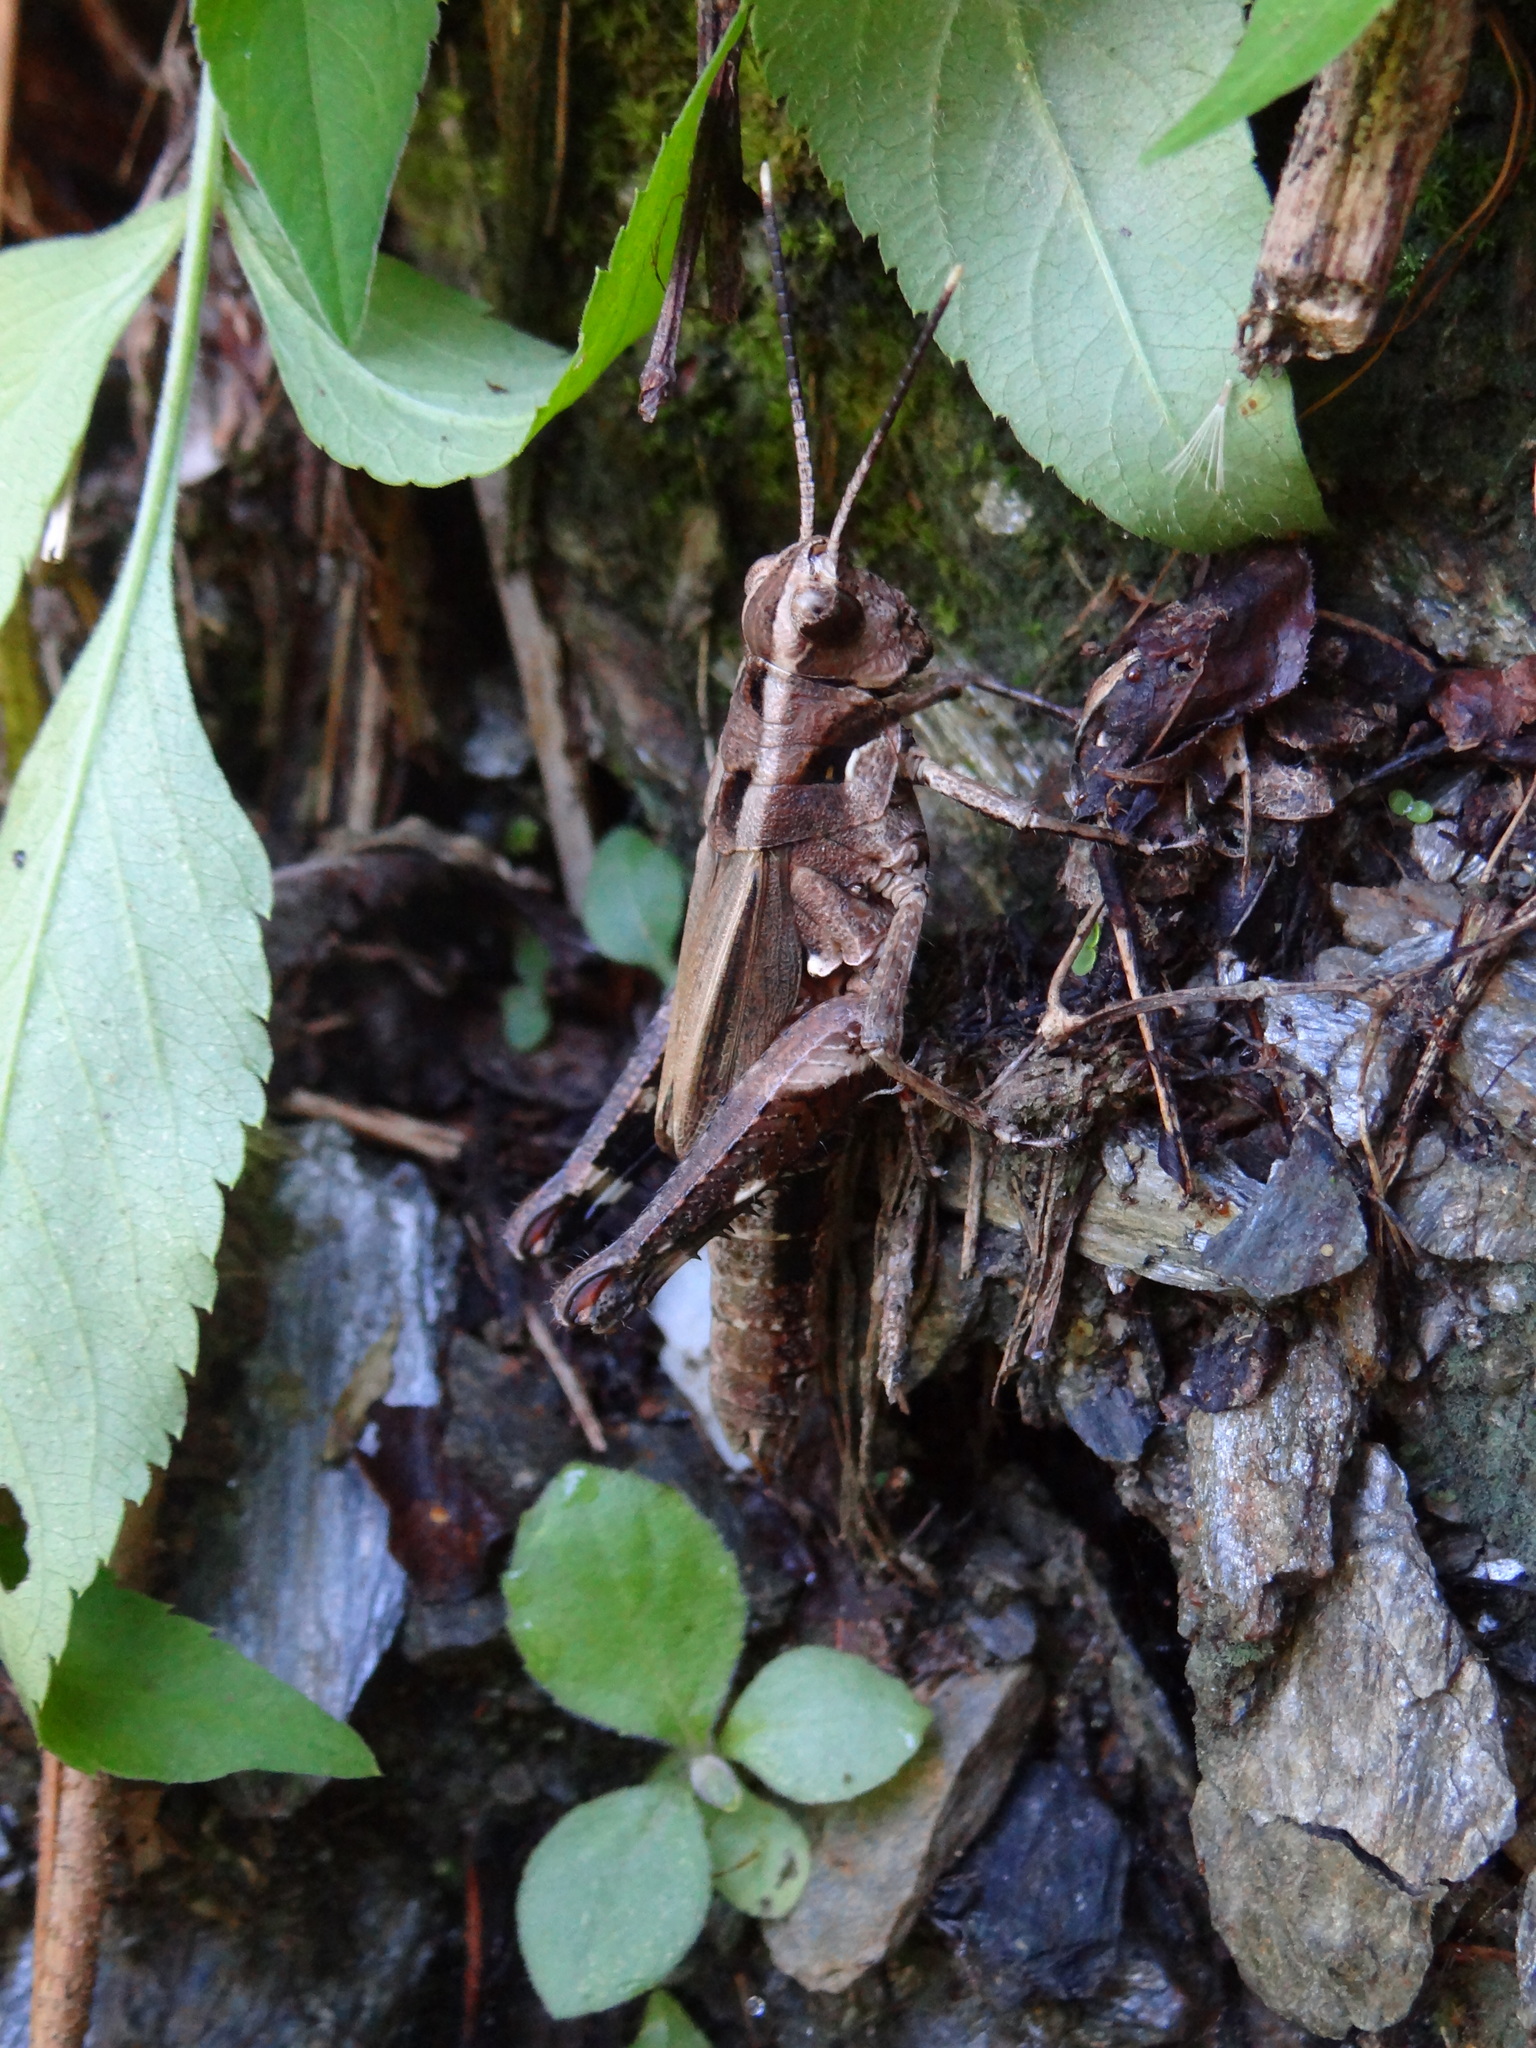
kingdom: Animalia
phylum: Arthropoda
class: Insecta
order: Orthoptera
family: Acrididae
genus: Traulia
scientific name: Traulia ornata
